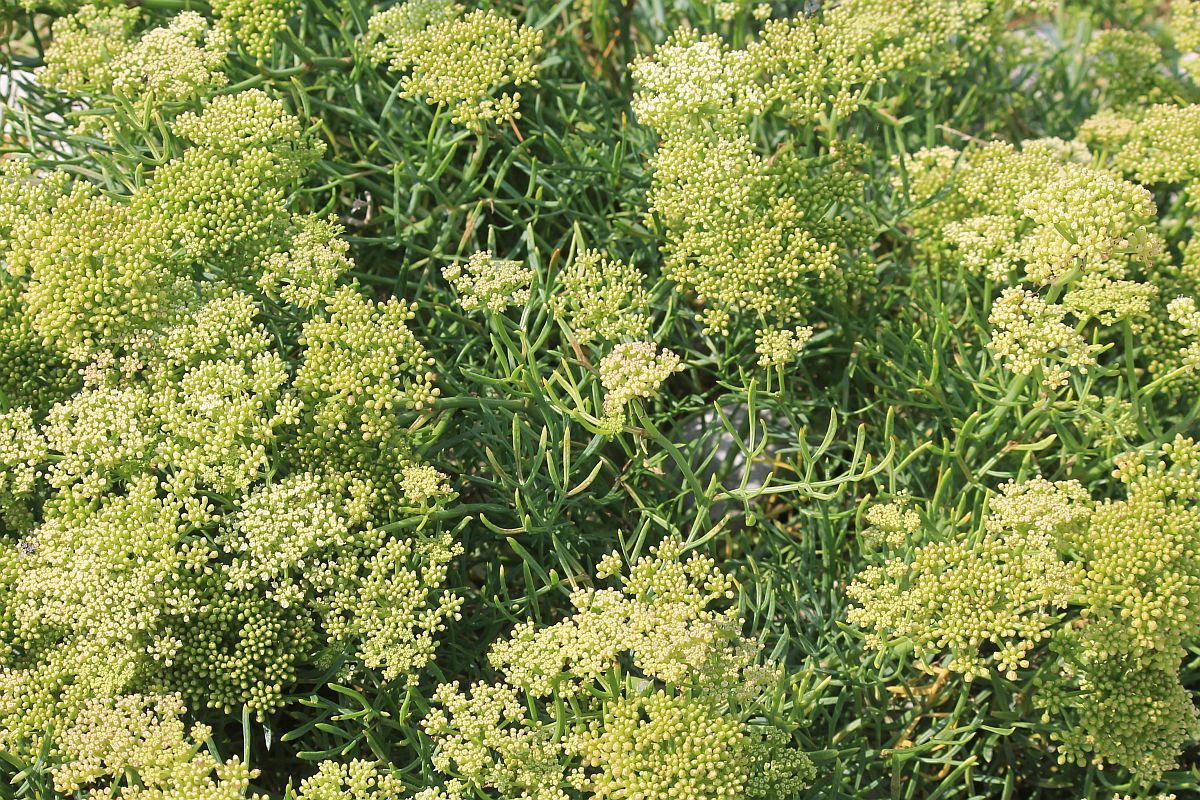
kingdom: Plantae
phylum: Tracheophyta
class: Magnoliopsida
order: Apiales
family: Apiaceae
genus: Crithmum
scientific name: Crithmum maritimum
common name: Rock samphire
